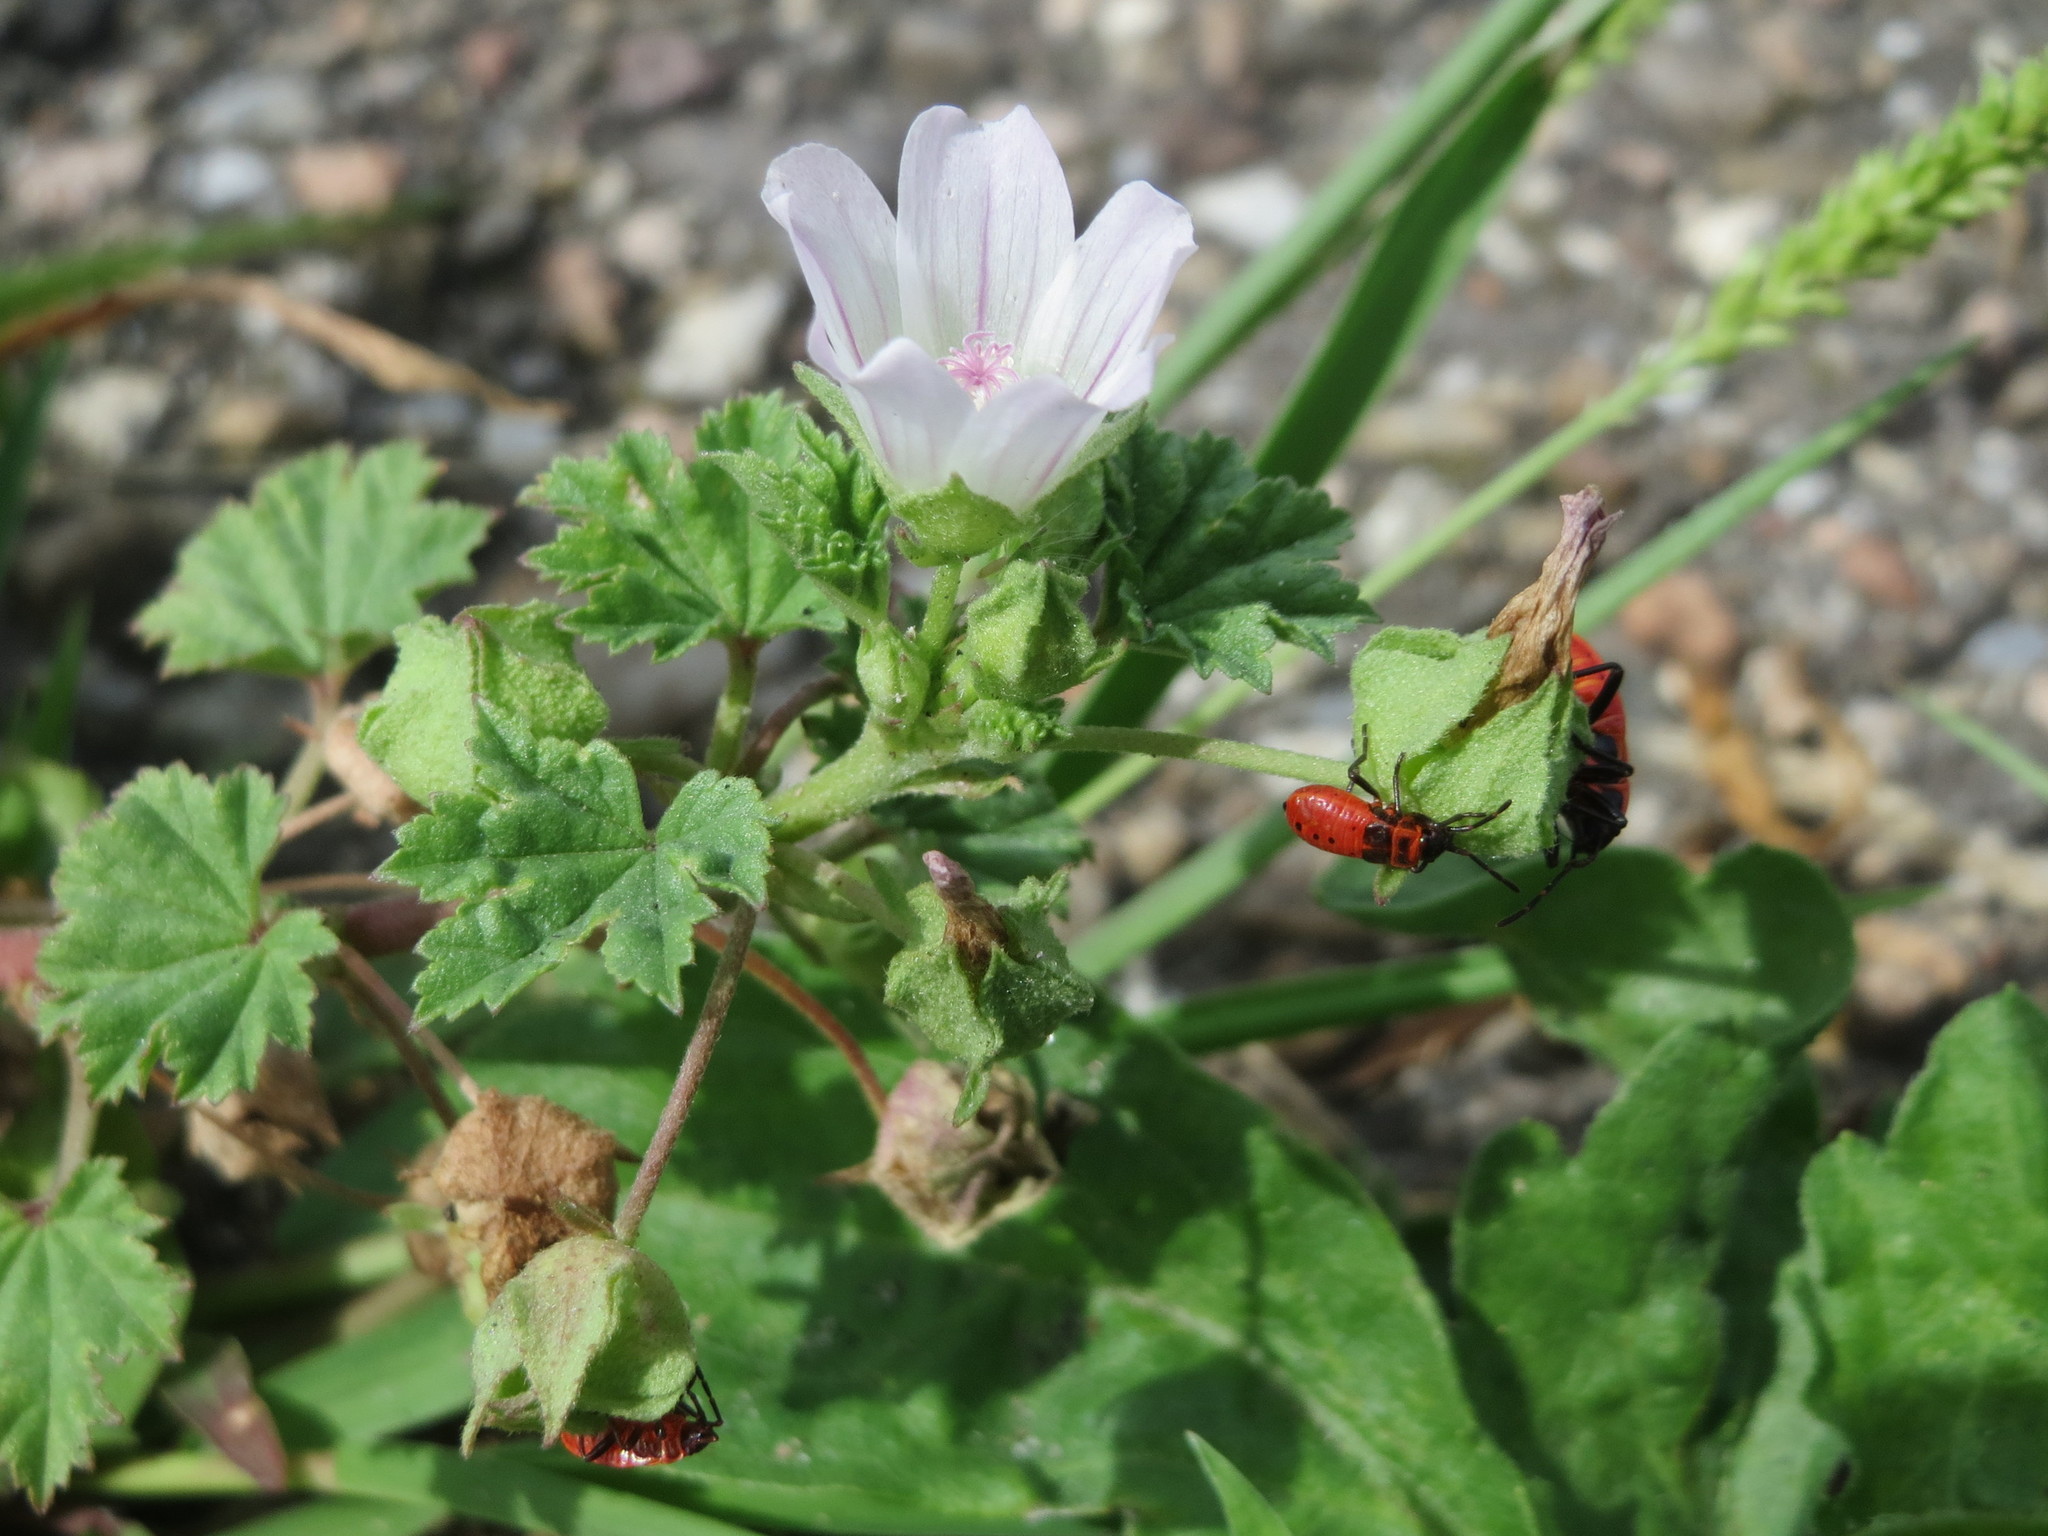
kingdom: Plantae
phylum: Tracheophyta
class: Magnoliopsida
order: Malvales
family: Malvaceae
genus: Malva
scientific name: Malva neglecta
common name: Common mallow
